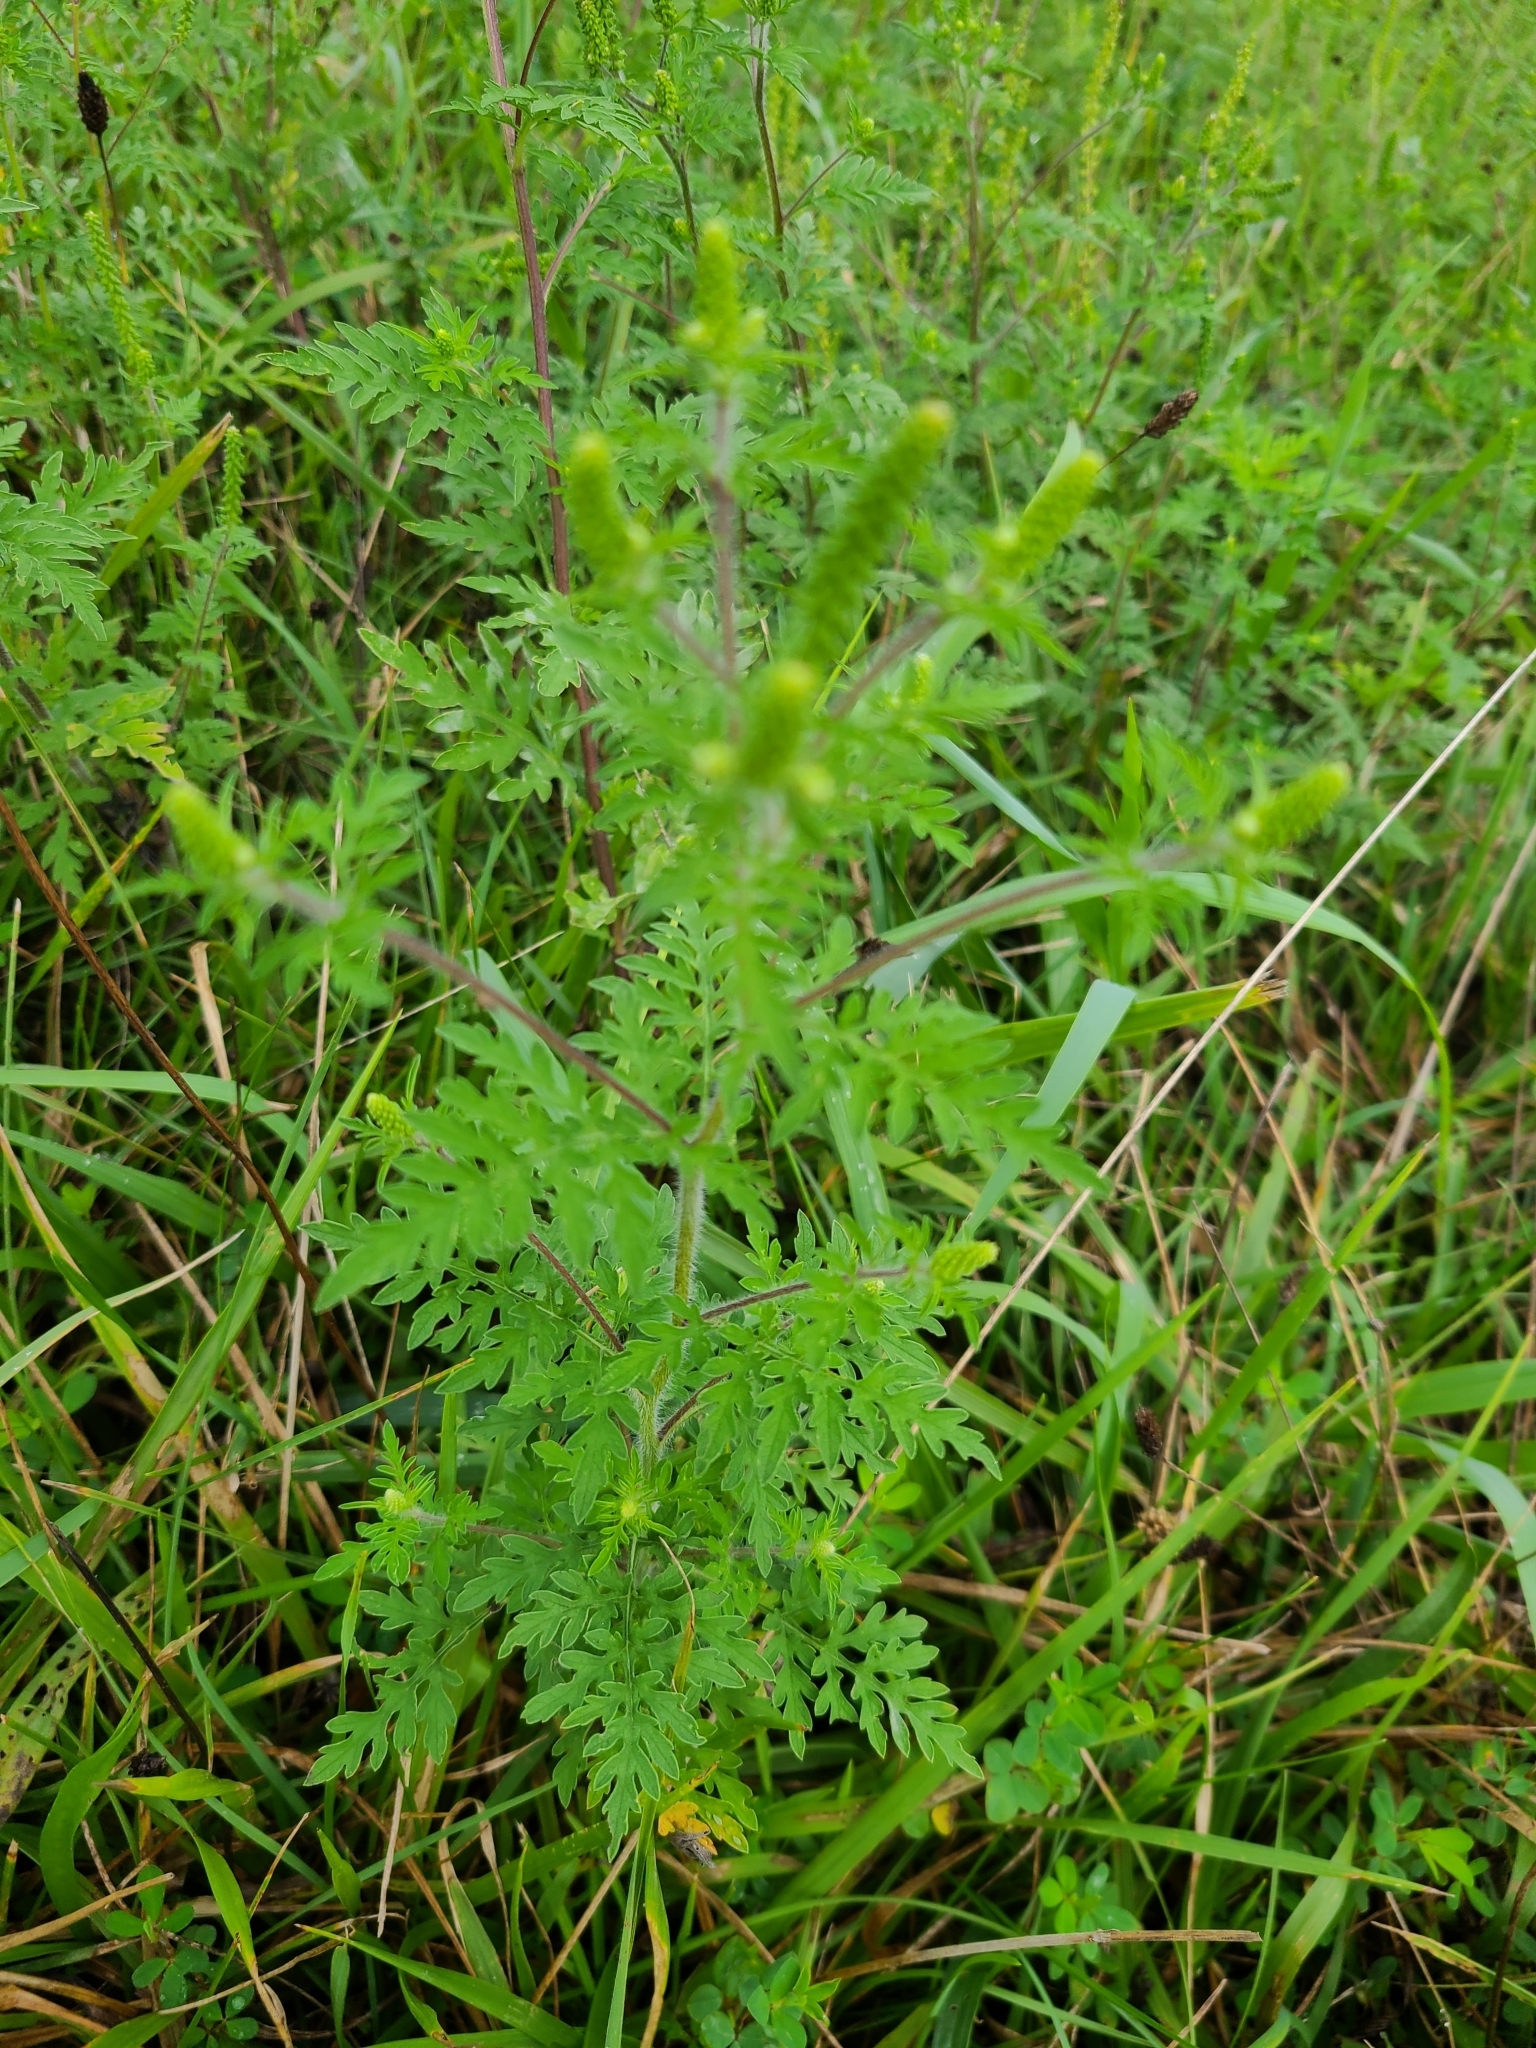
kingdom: Plantae
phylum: Tracheophyta
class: Magnoliopsida
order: Asterales
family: Asteraceae
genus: Ambrosia
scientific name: Ambrosia artemisiifolia
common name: Annual ragweed
